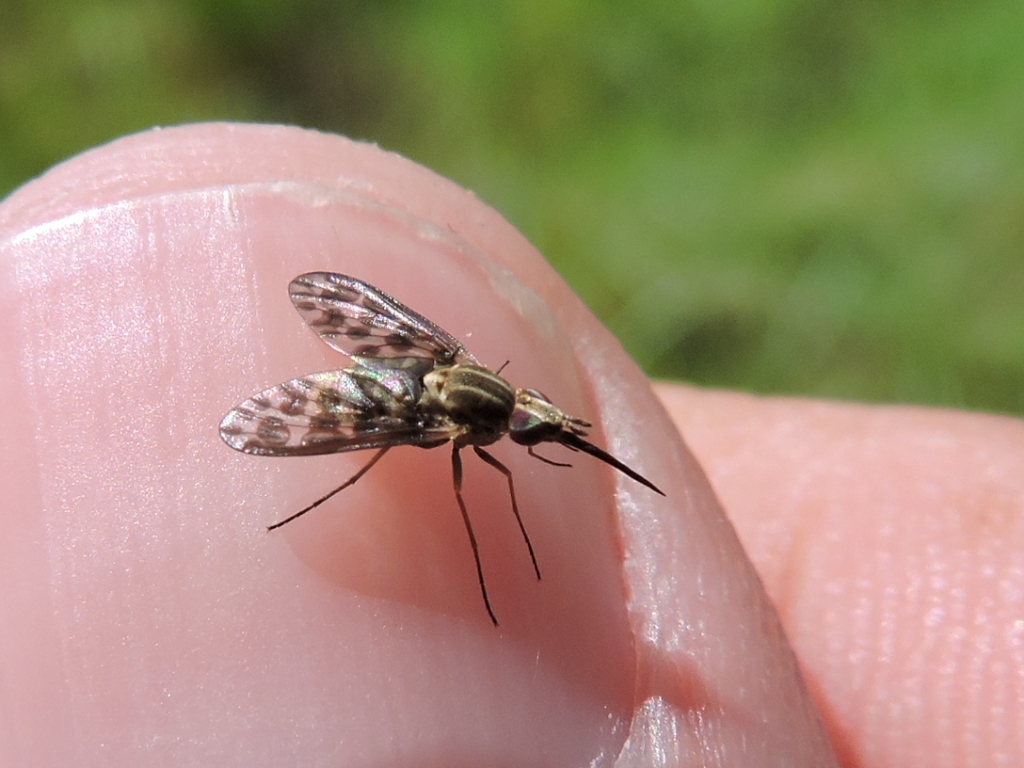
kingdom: Animalia
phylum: Arthropoda
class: Insecta
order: Diptera
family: Bombyliidae
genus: Poecilognathus
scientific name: Poecilognathus punctipennis
